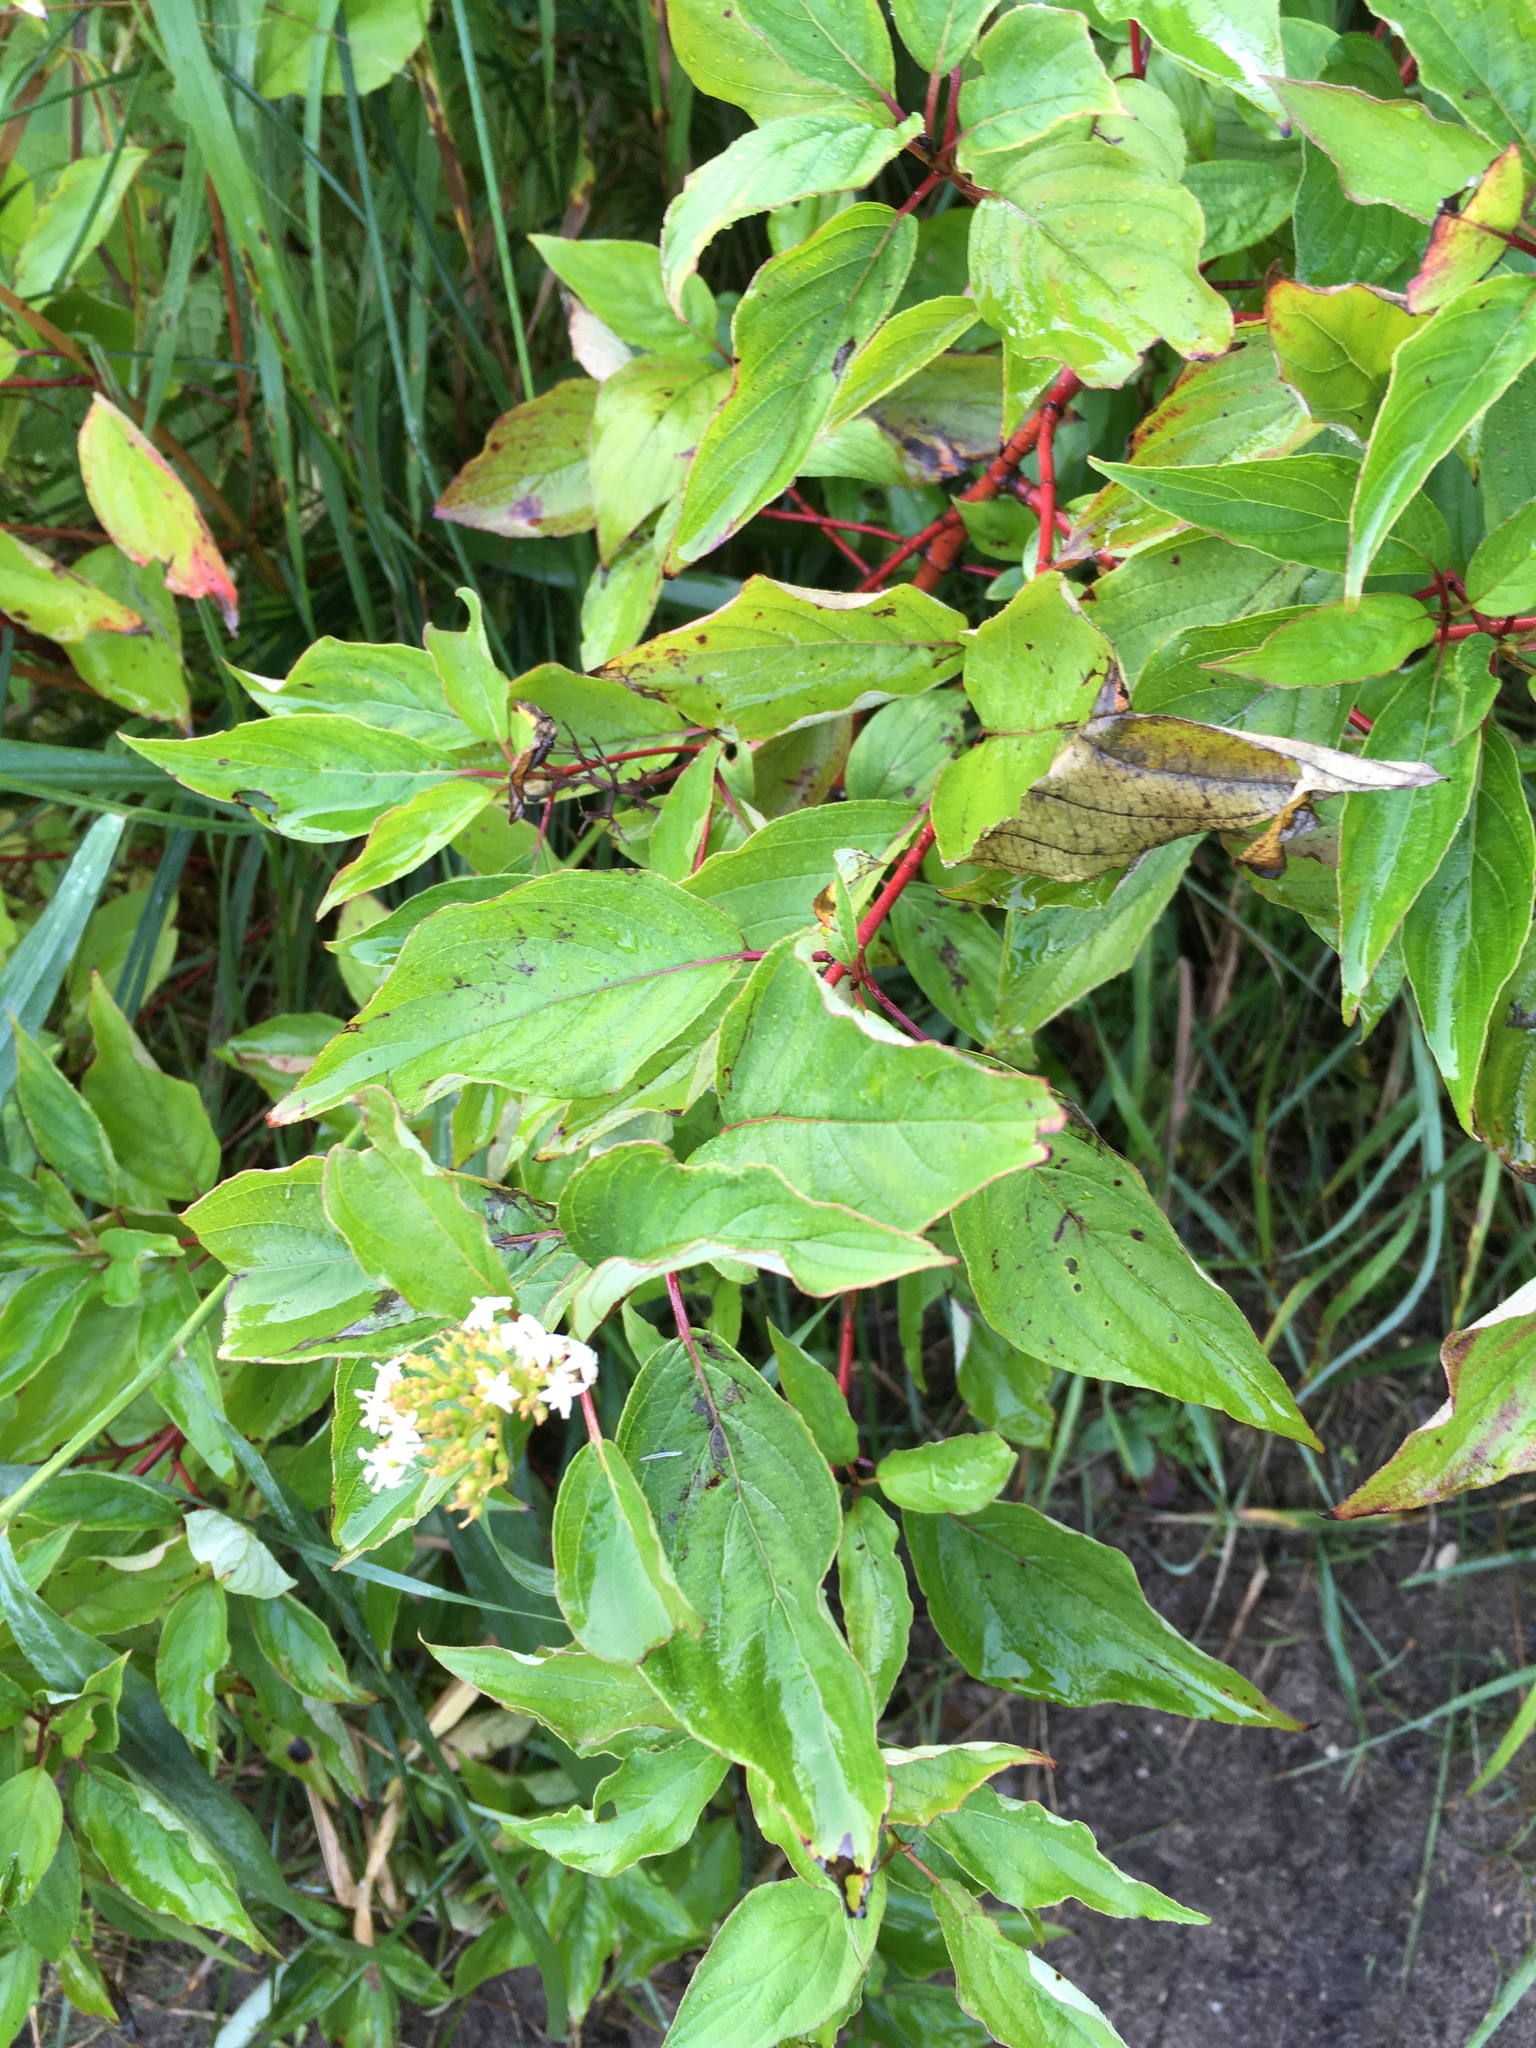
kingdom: Plantae
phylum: Tracheophyta
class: Magnoliopsida
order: Cornales
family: Cornaceae
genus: Cornus
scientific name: Cornus sericea
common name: Red-osier dogwood
